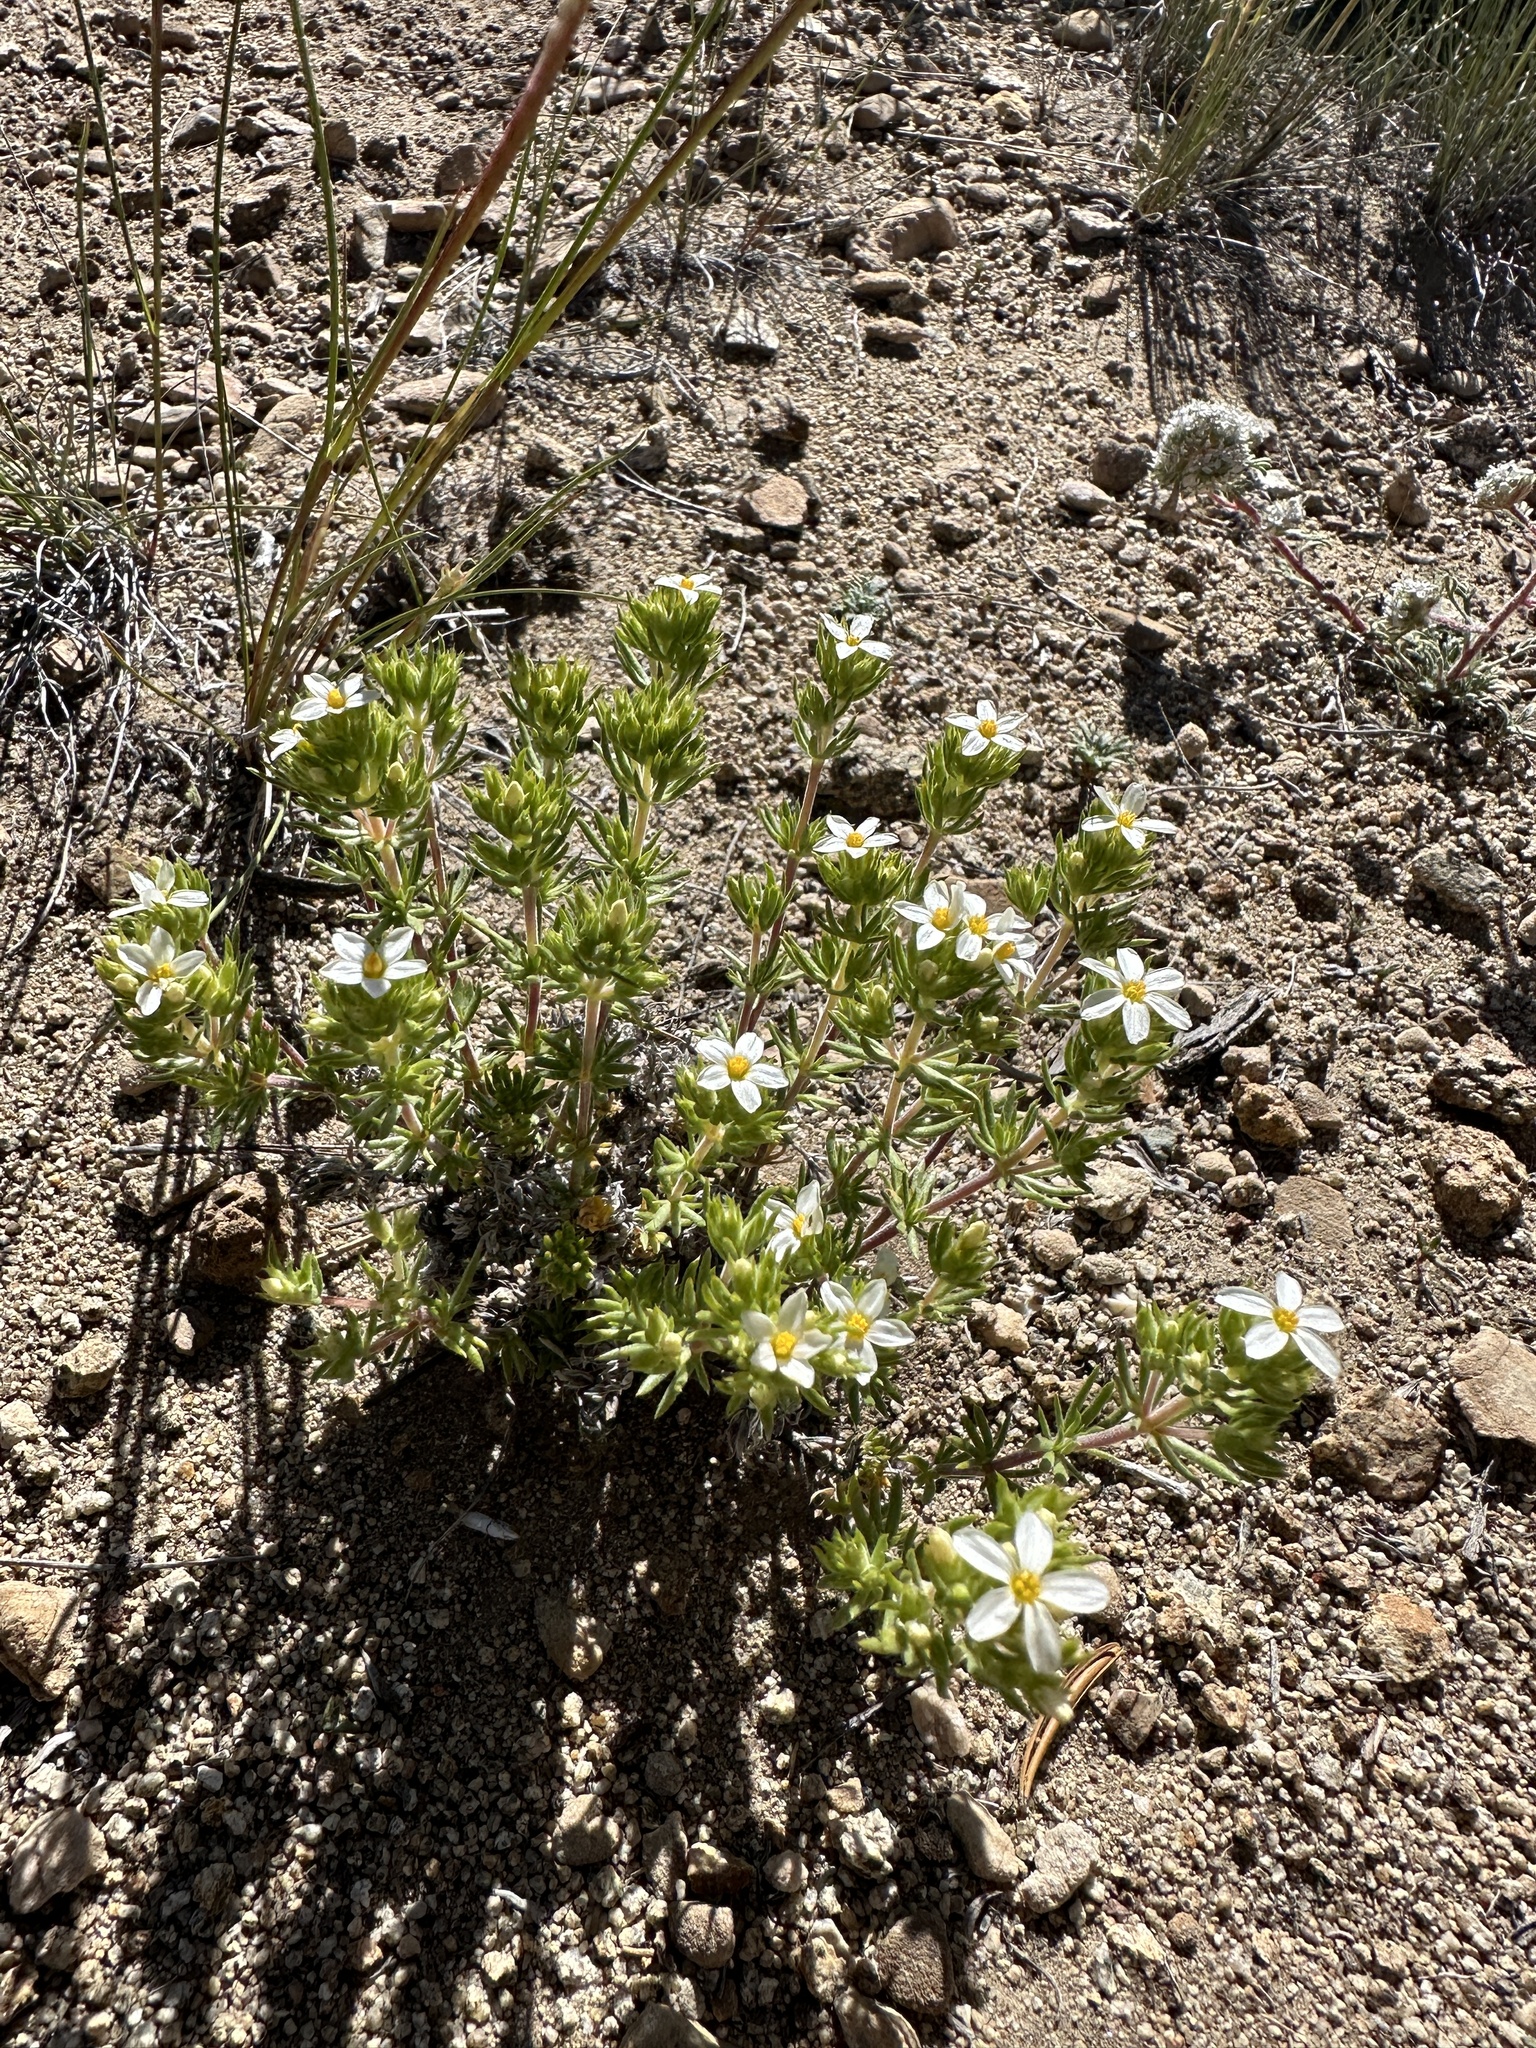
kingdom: Plantae
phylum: Tracheophyta
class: Magnoliopsida
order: Ericales
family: Polemoniaceae
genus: Leptosiphon
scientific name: Leptosiphon nuttallii
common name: Nuttall's linanthus
